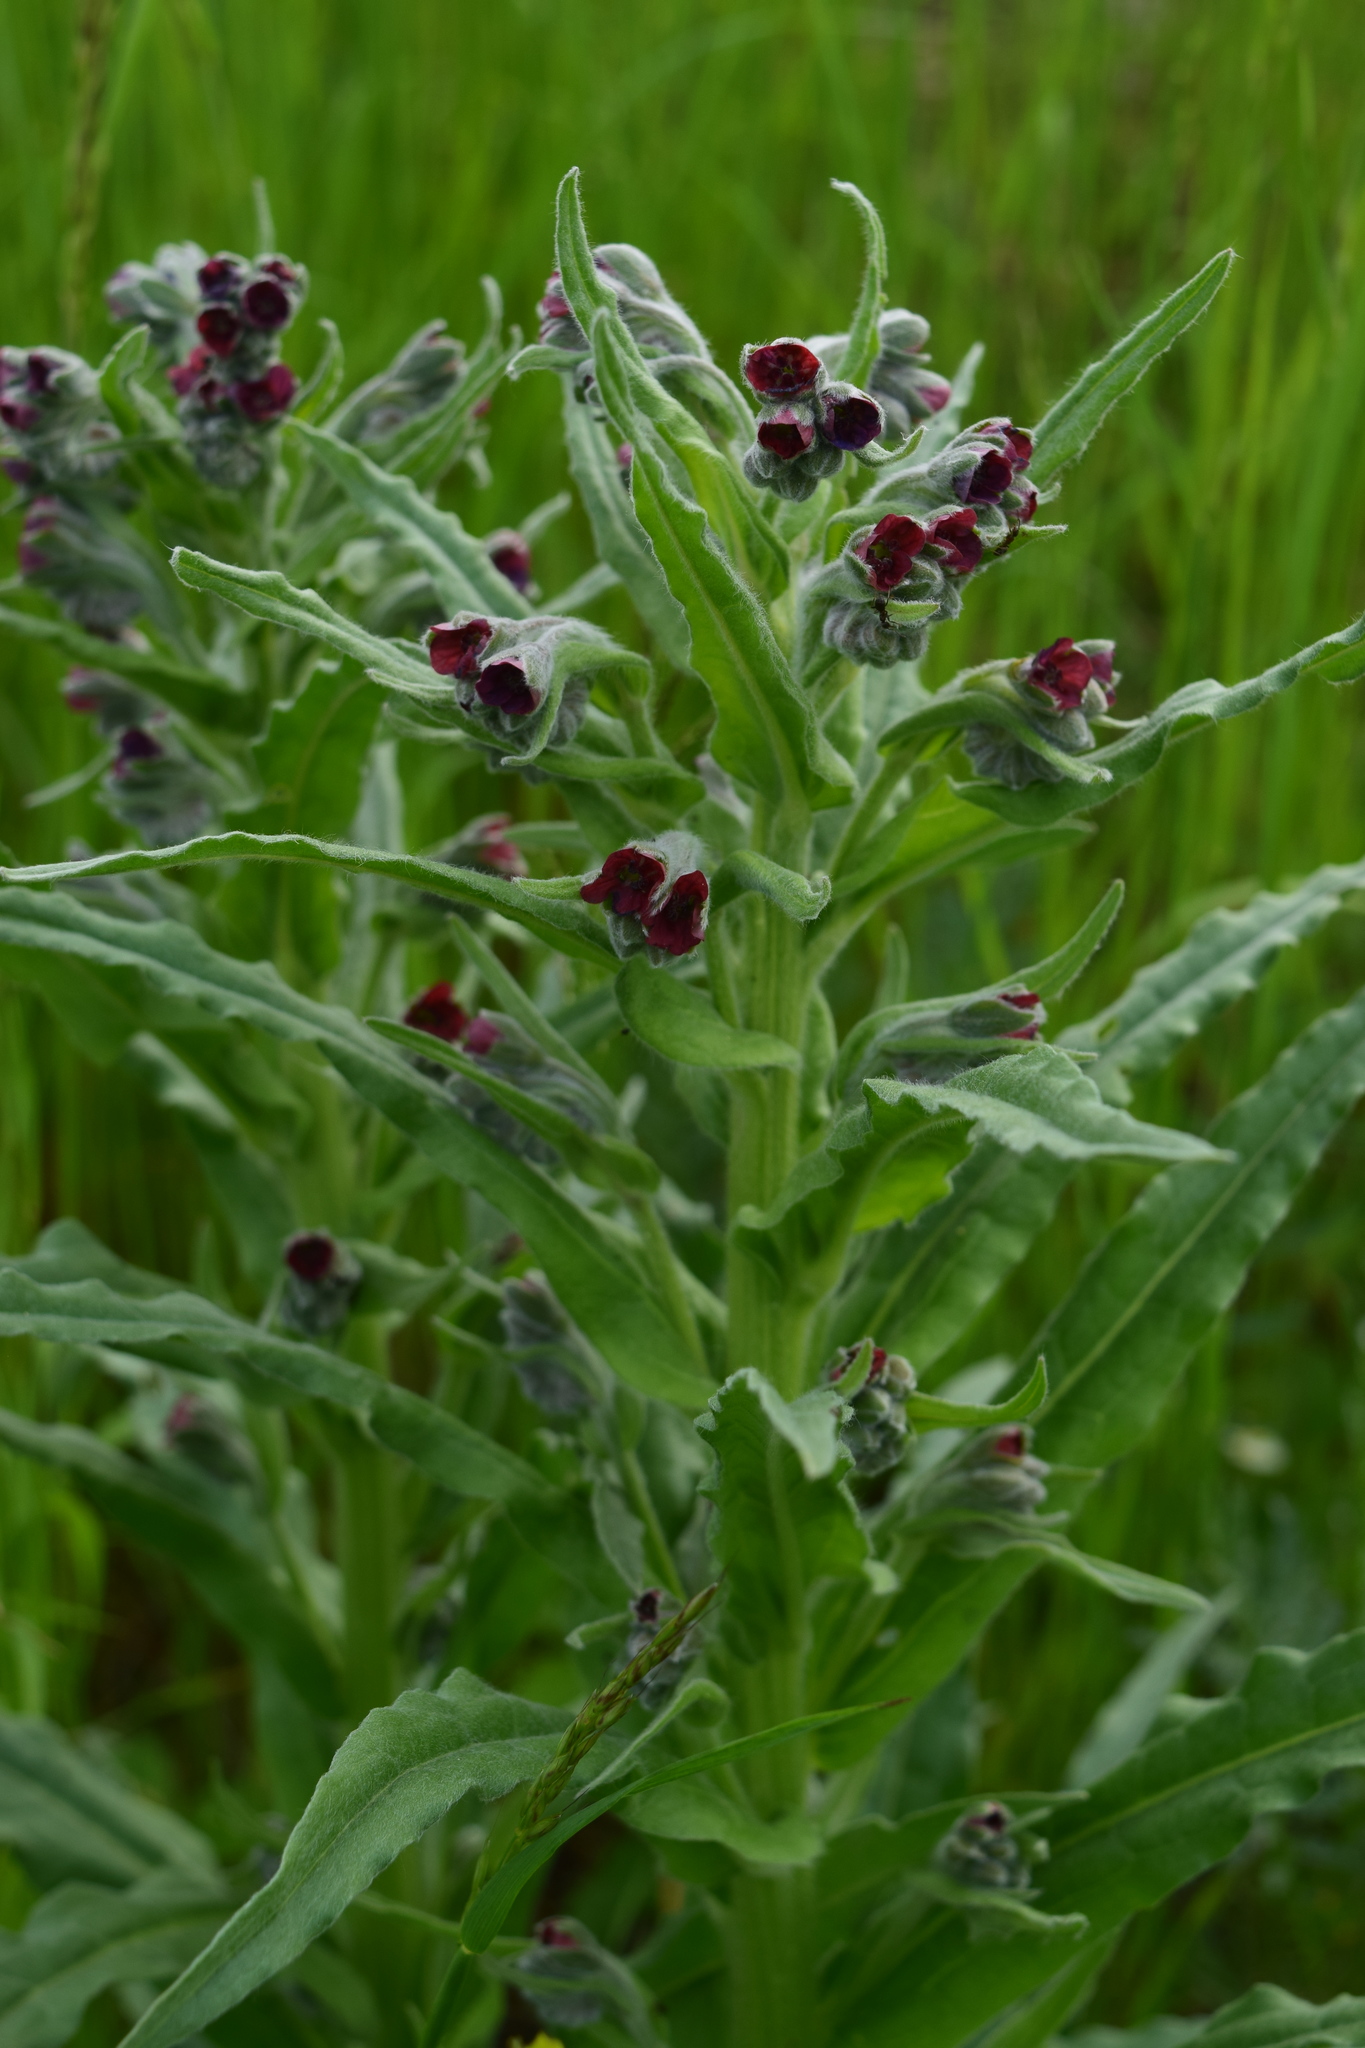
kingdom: Plantae
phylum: Tracheophyta
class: Magnoliopsida
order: Boraginales
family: Boraginaceae
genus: Cynoglossum
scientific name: Cynoglossum officinale
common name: Hound's-tongue
